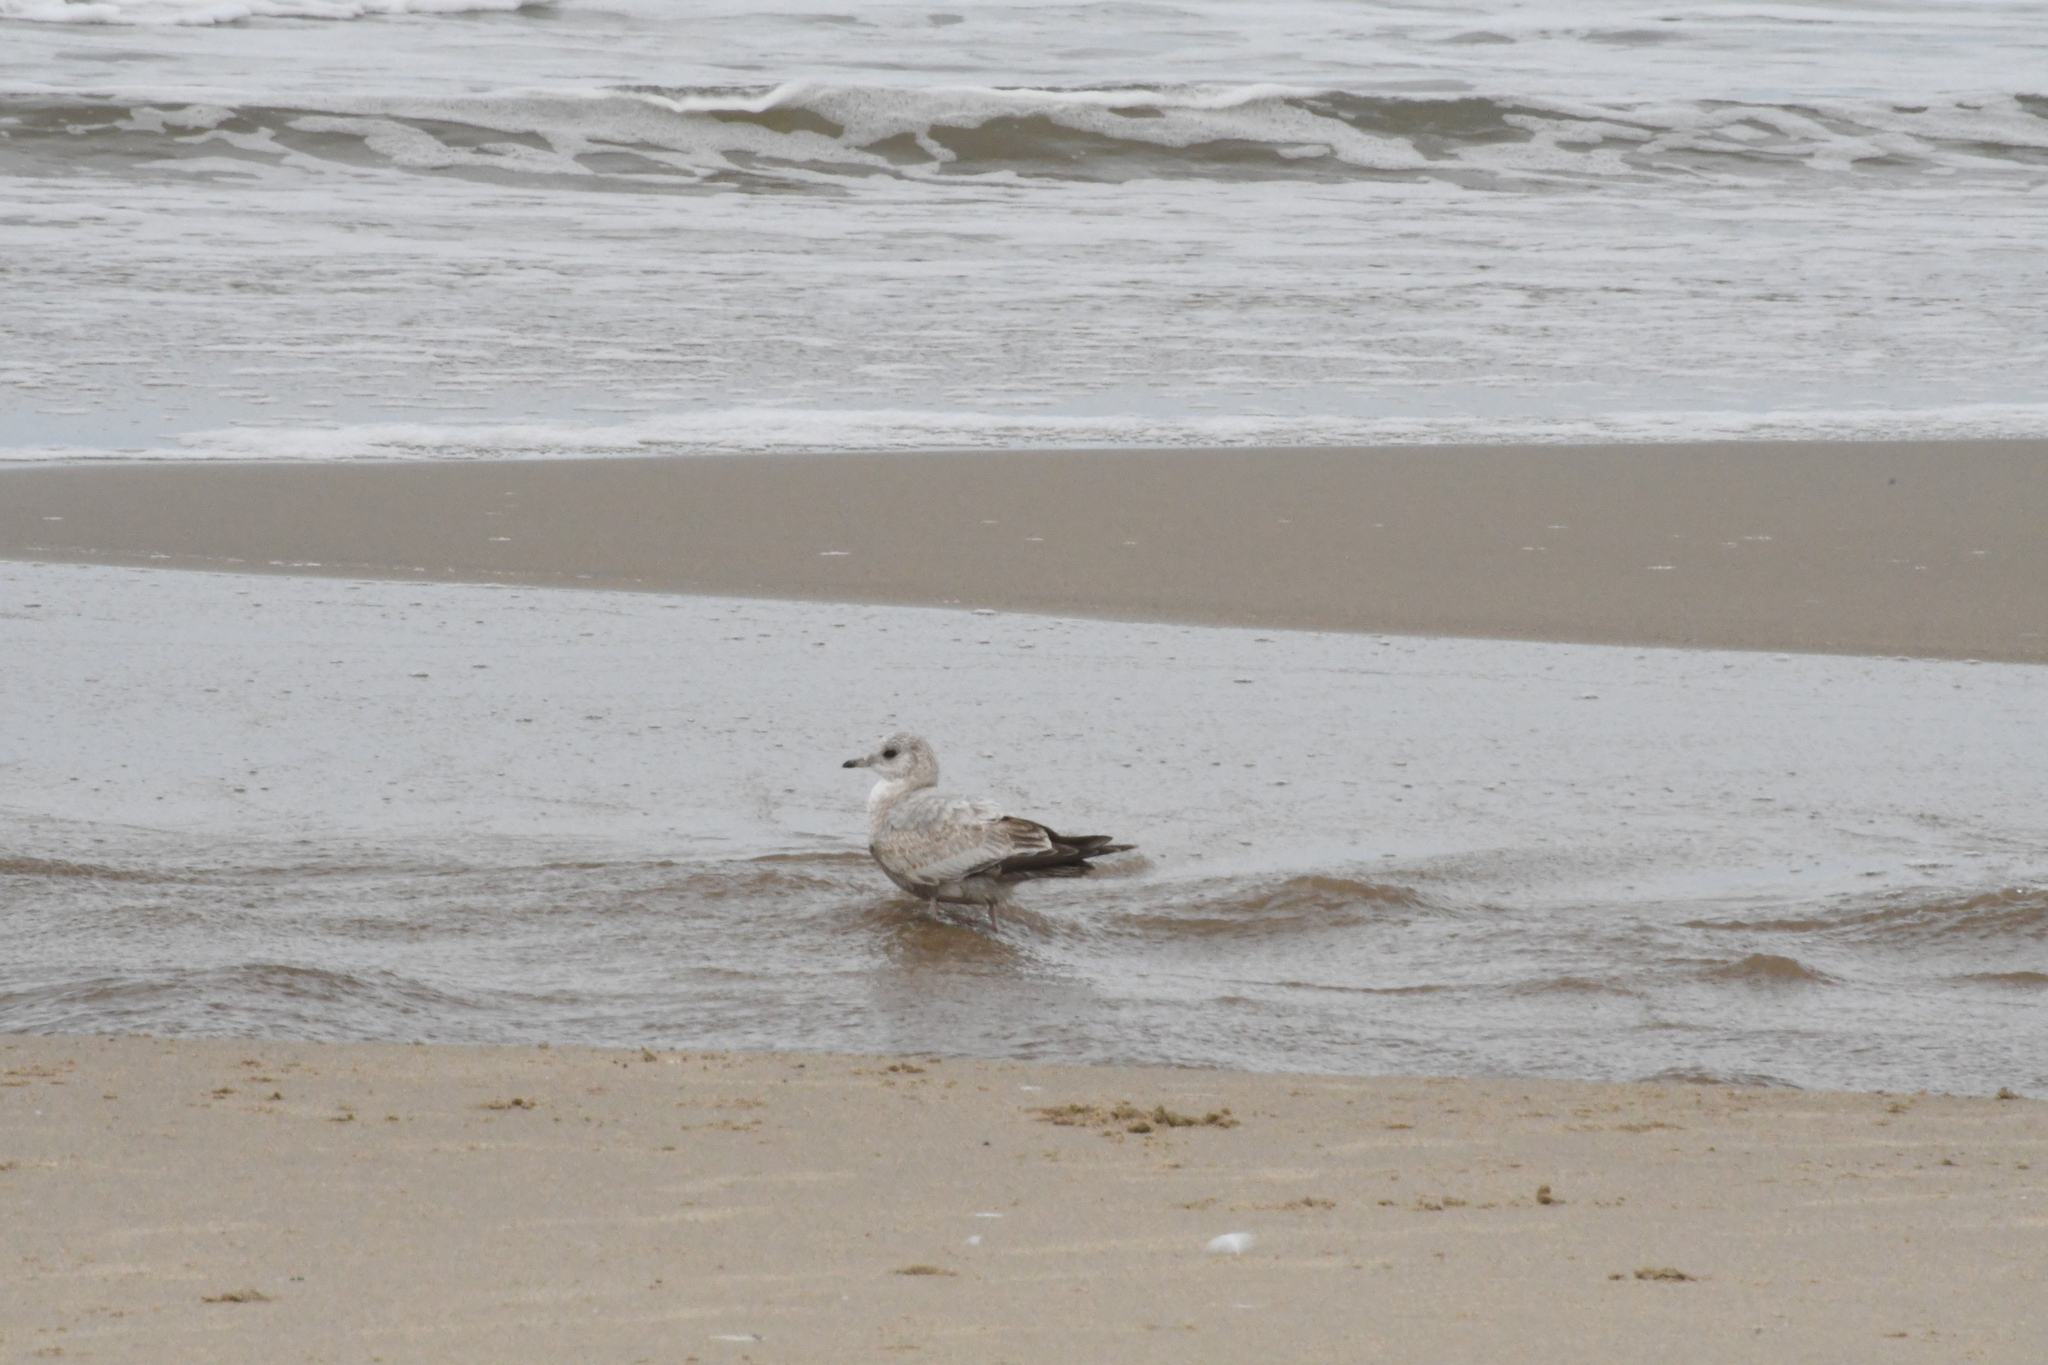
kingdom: Animalia
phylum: Chordata
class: Aves
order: Charadriiformes
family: Laridae
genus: Larus
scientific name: Larus brachyrhynchus
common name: Short-billed gull
